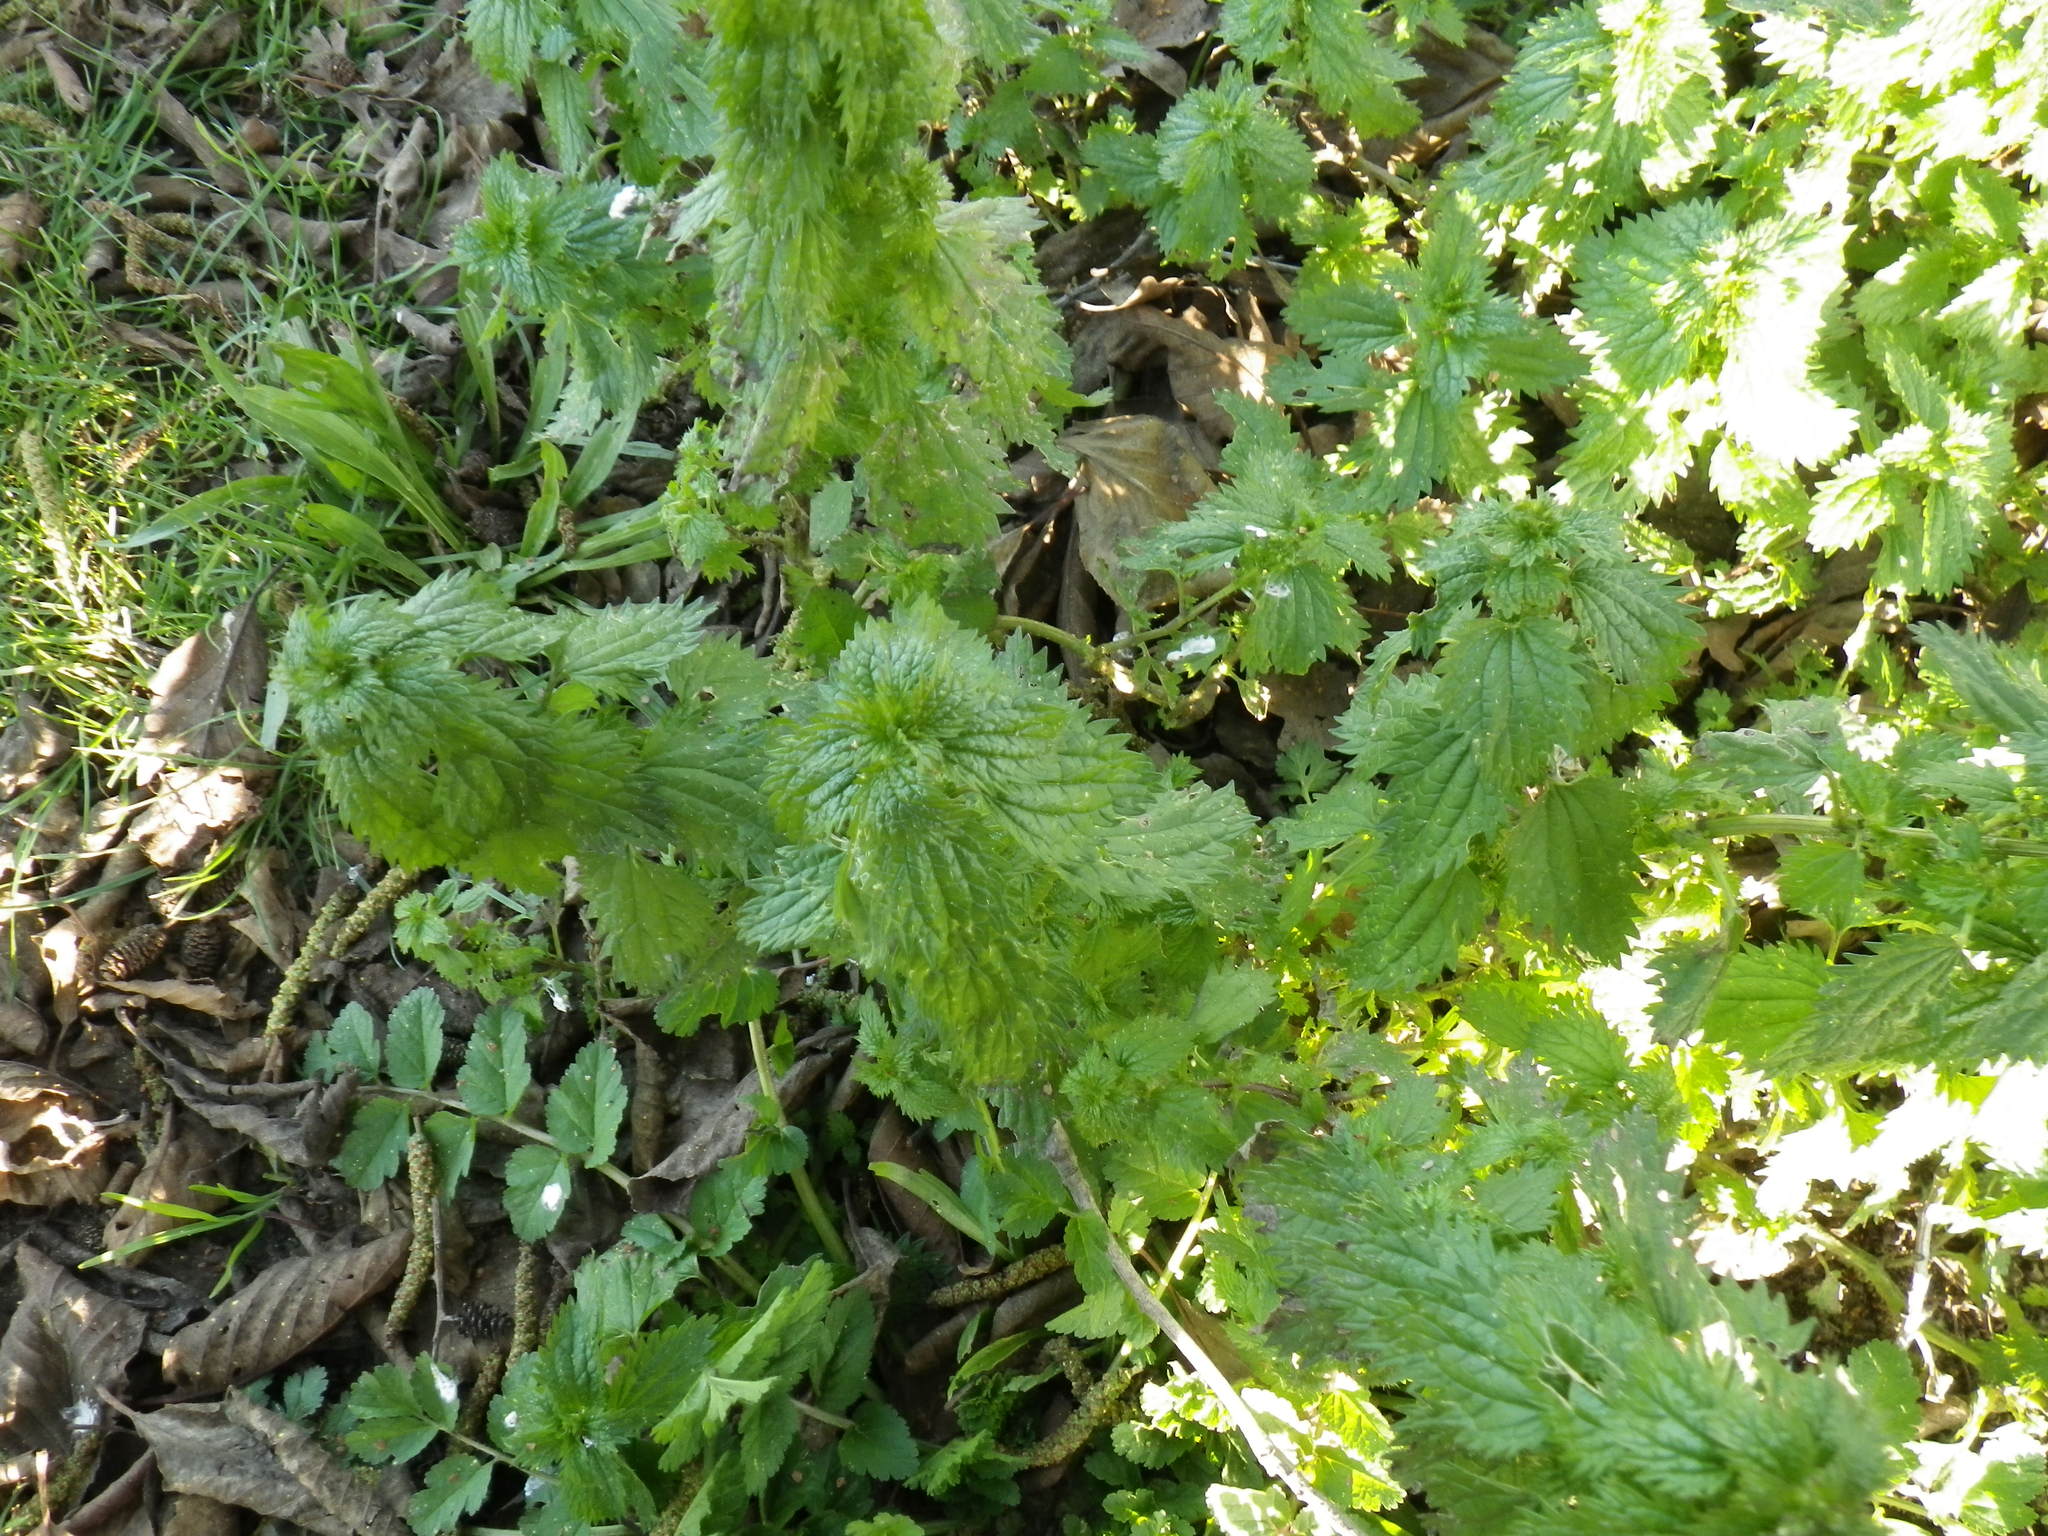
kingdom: Plantae
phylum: Tracheophyta
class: Magnoliopsida
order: Rosales
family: Urticaceae
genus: Urtica
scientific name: Urtica dioica
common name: Common nettle
